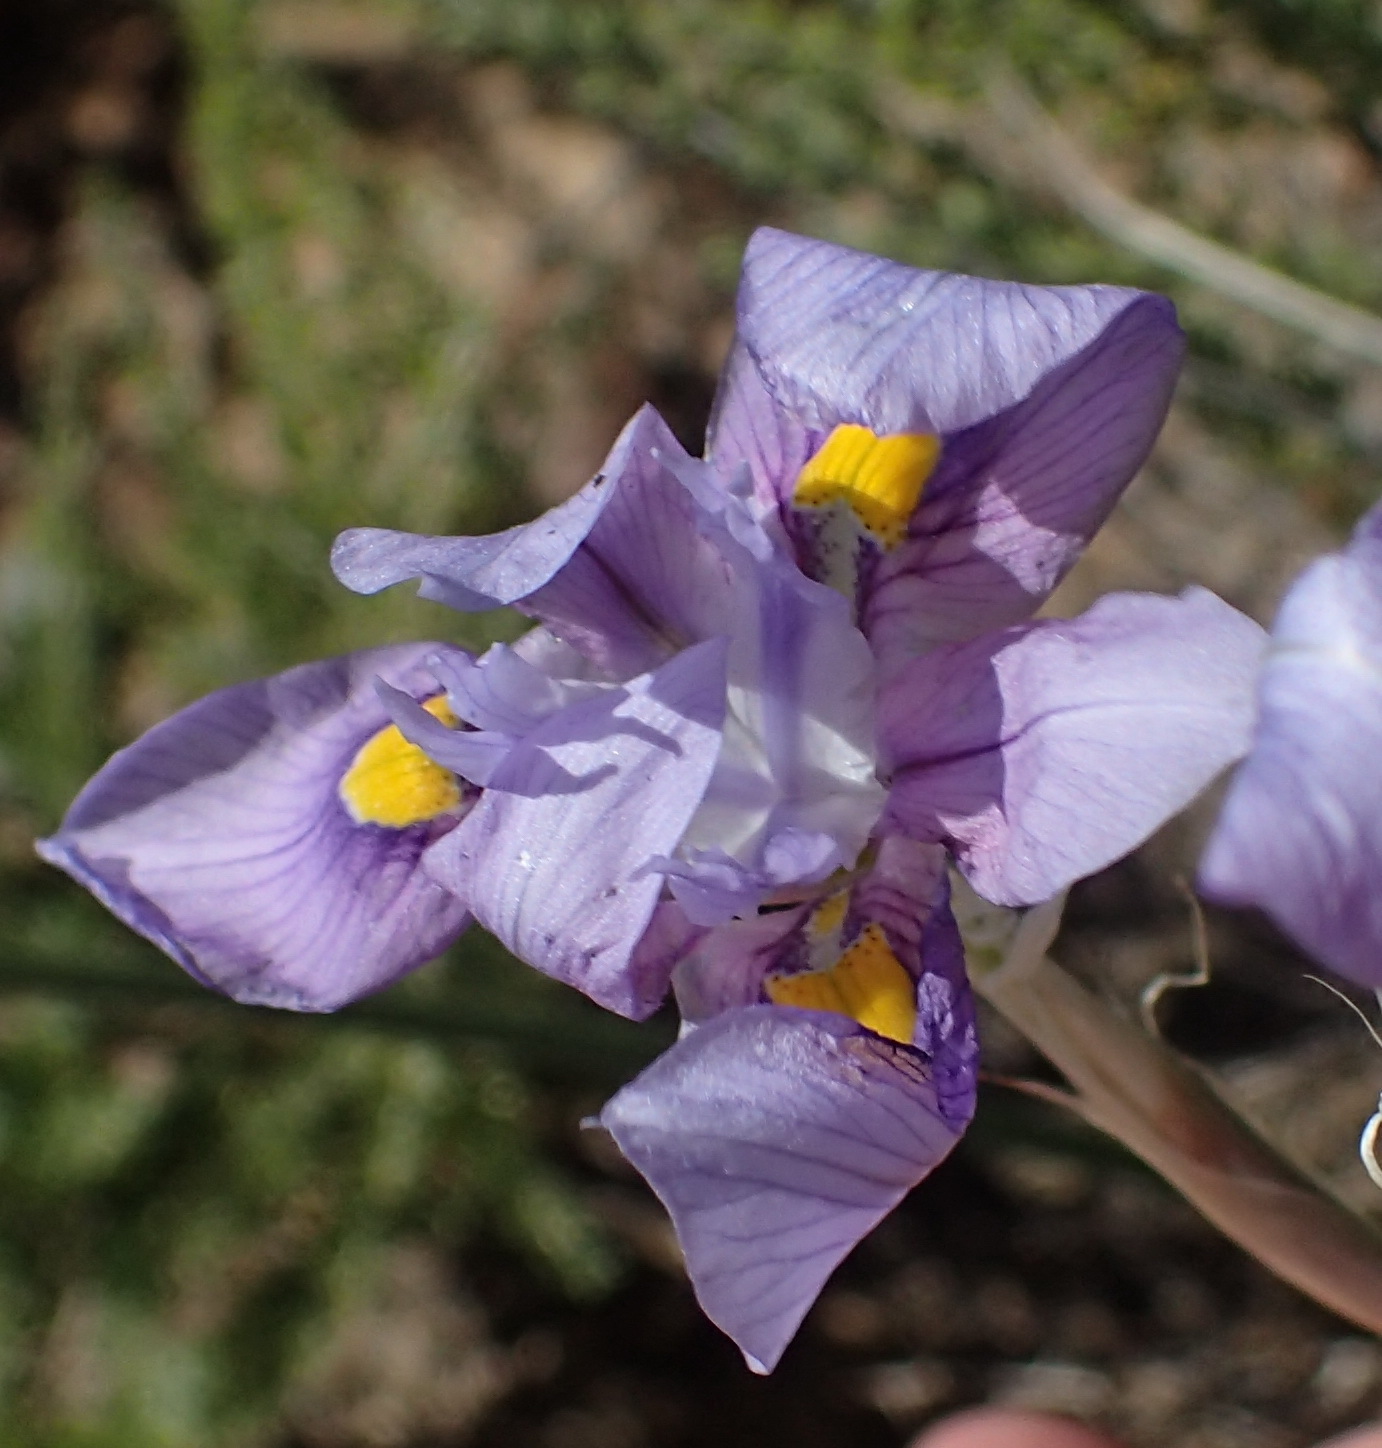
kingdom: Plantae
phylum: Tracheophyta
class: Liliopsida
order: Asparagales
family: Iridaceae
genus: Moraea
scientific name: Moraea polystachya
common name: Blue-tulip
